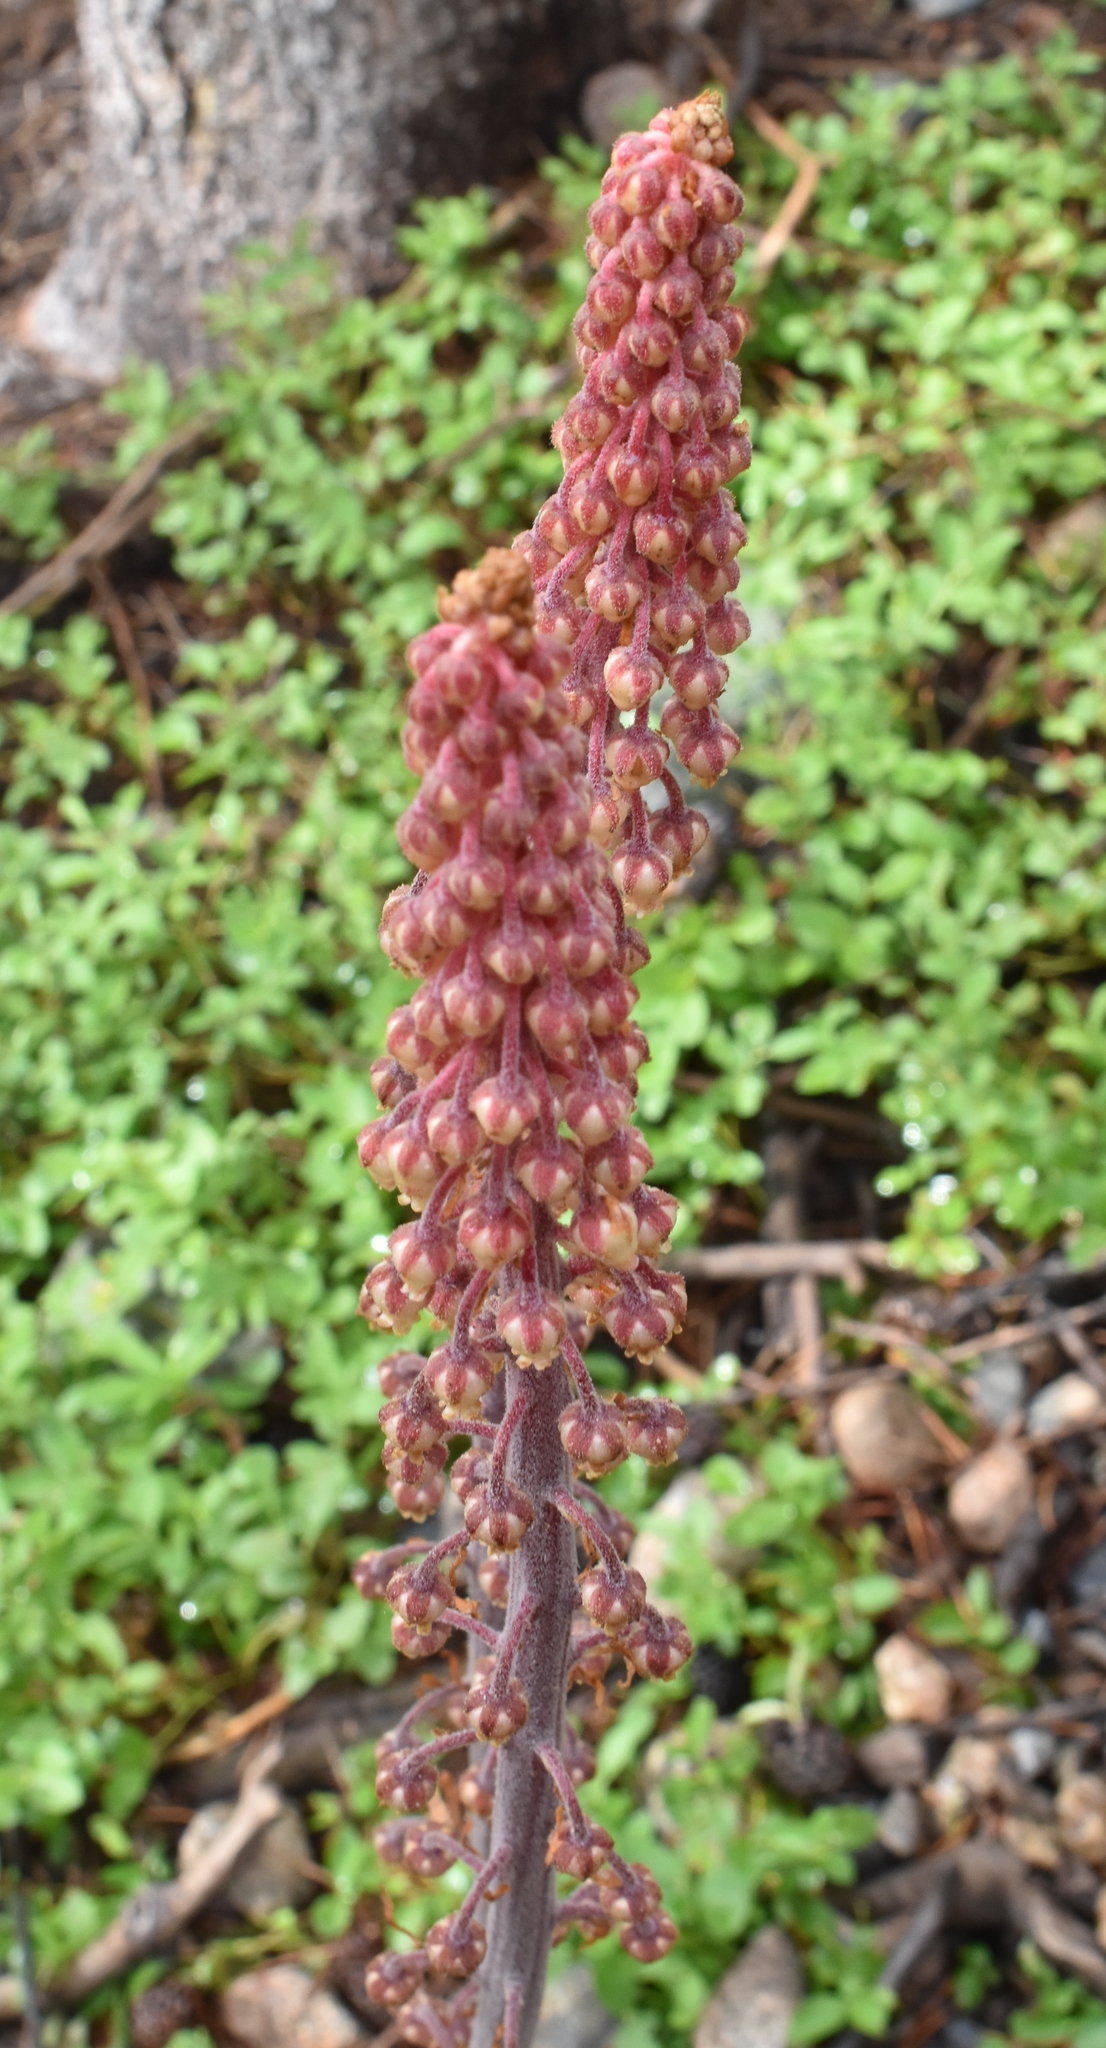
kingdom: Plantae
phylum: Tracheophyta
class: Magnoliopsida
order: Ericales
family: Ericaceae
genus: Pterospora
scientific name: Pterospora andromedea
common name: Giant bird's-nest
